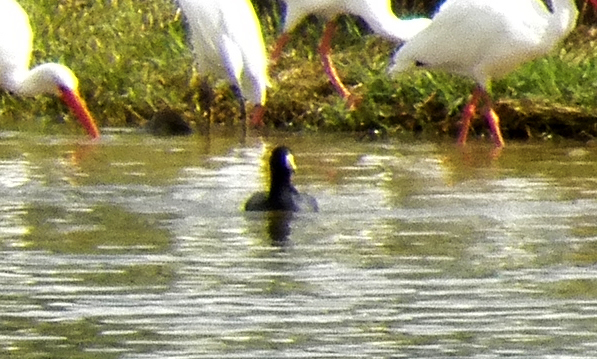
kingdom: Animalia
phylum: Chordata
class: Aves
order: Gruiformes
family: Rallidae
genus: Fulica
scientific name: Fulica americana
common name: American coot
